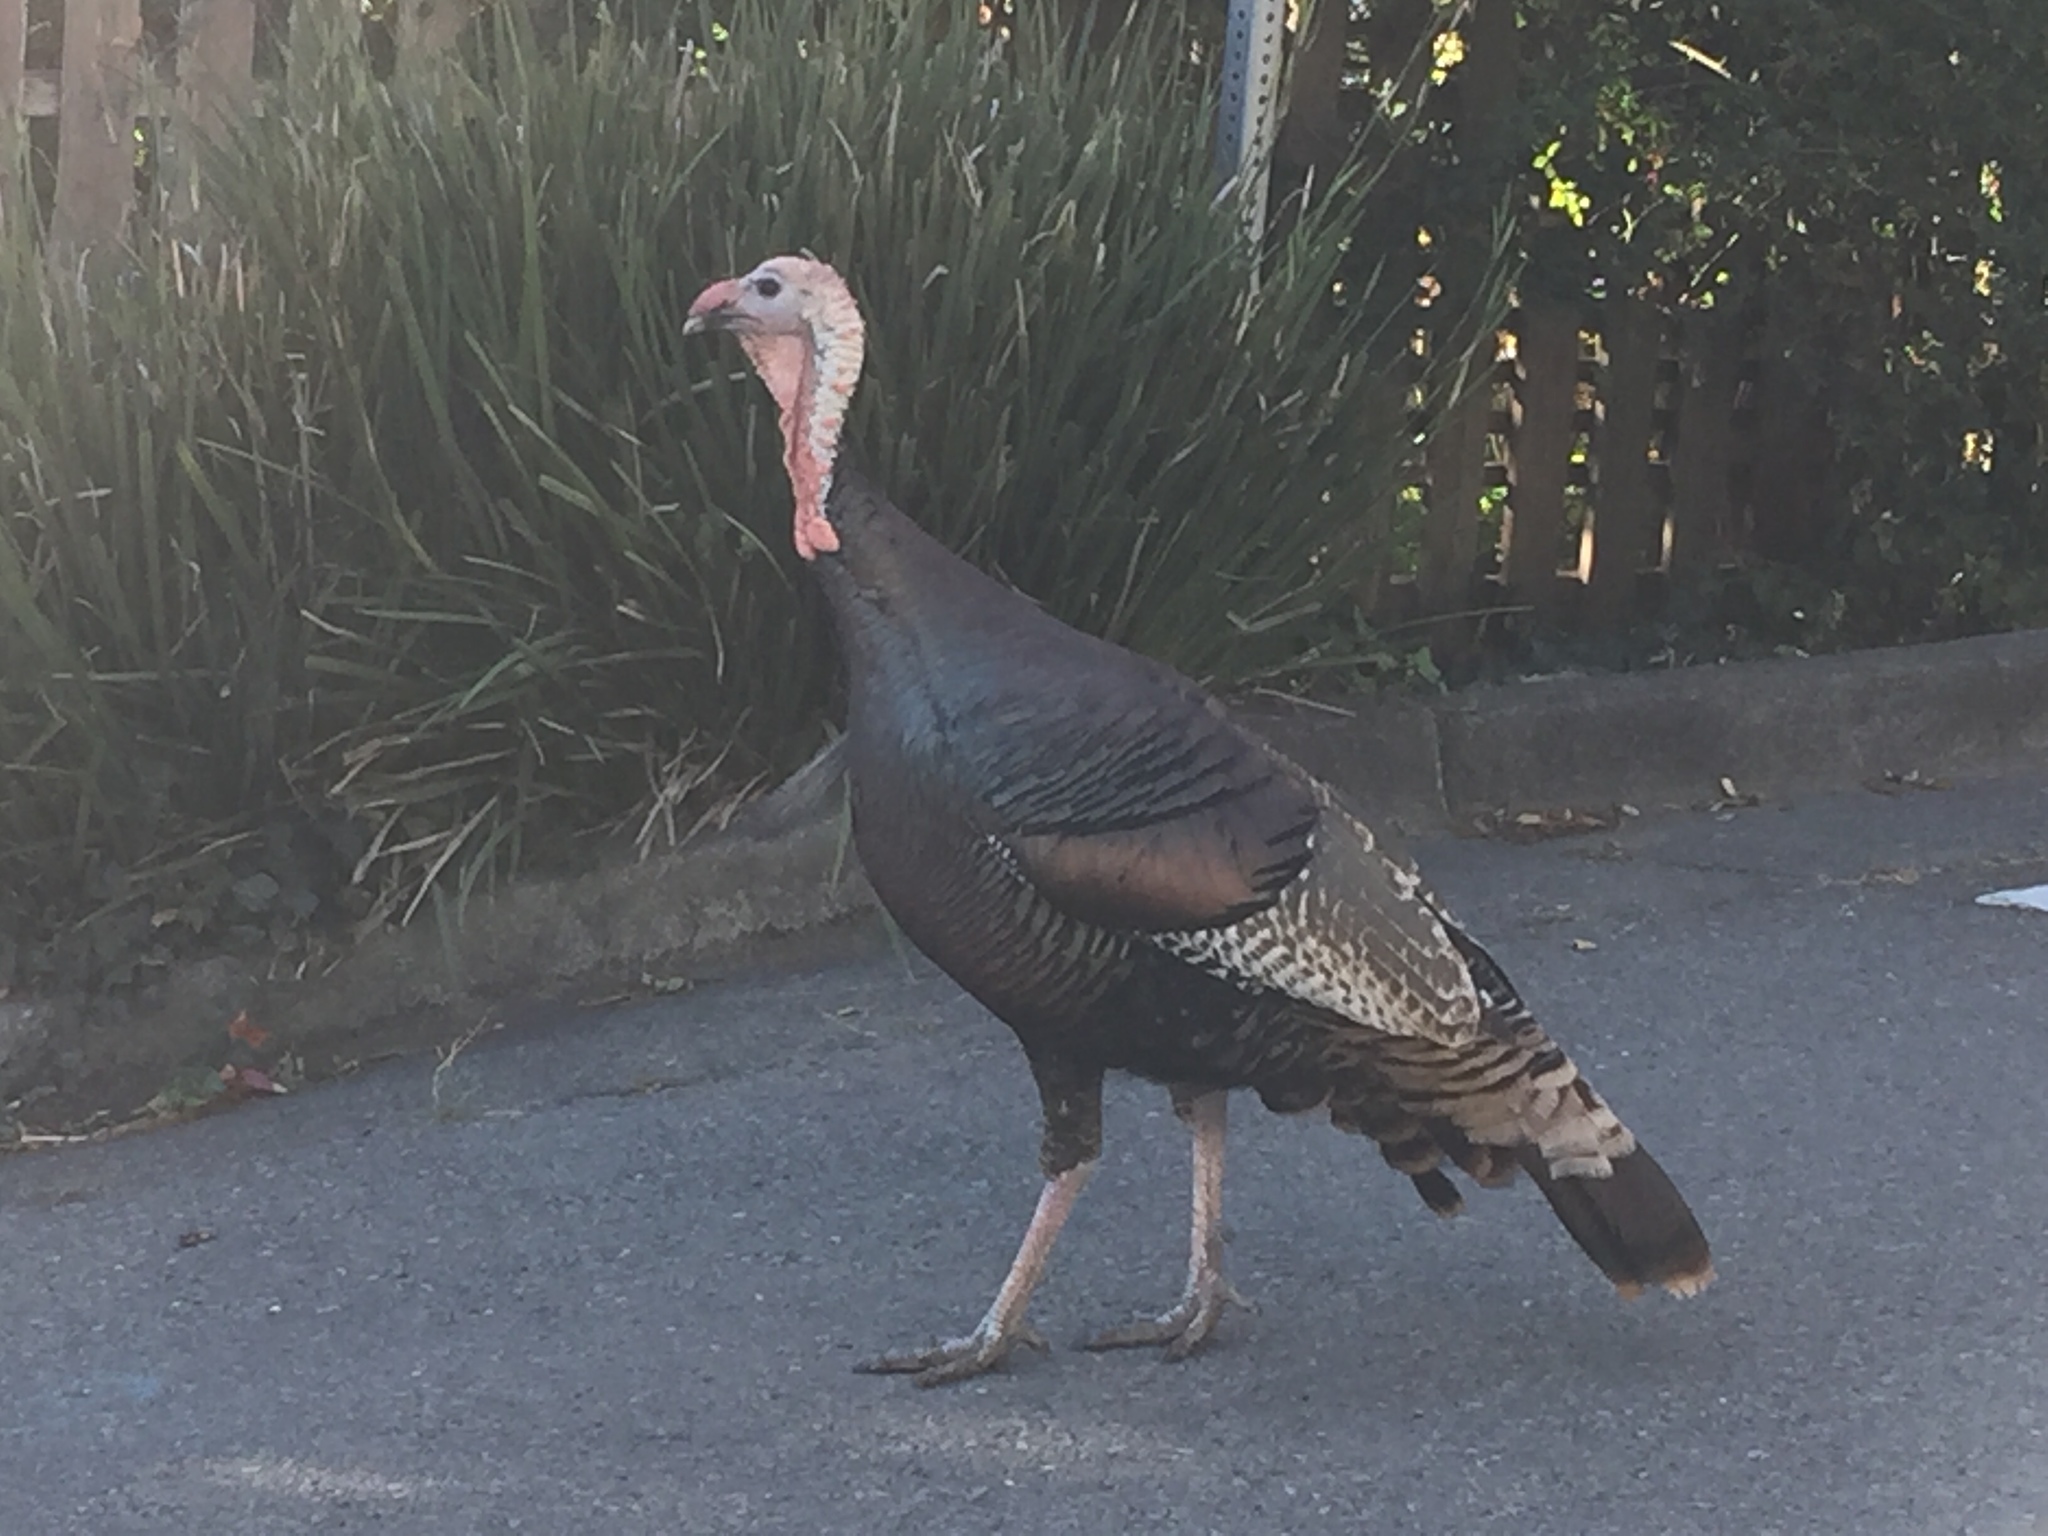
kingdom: Animalia
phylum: Chordata
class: Aves
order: Galliformes
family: Phasianidae
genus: Meleagris
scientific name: Meleagris gallopavo
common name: Wild turkey
